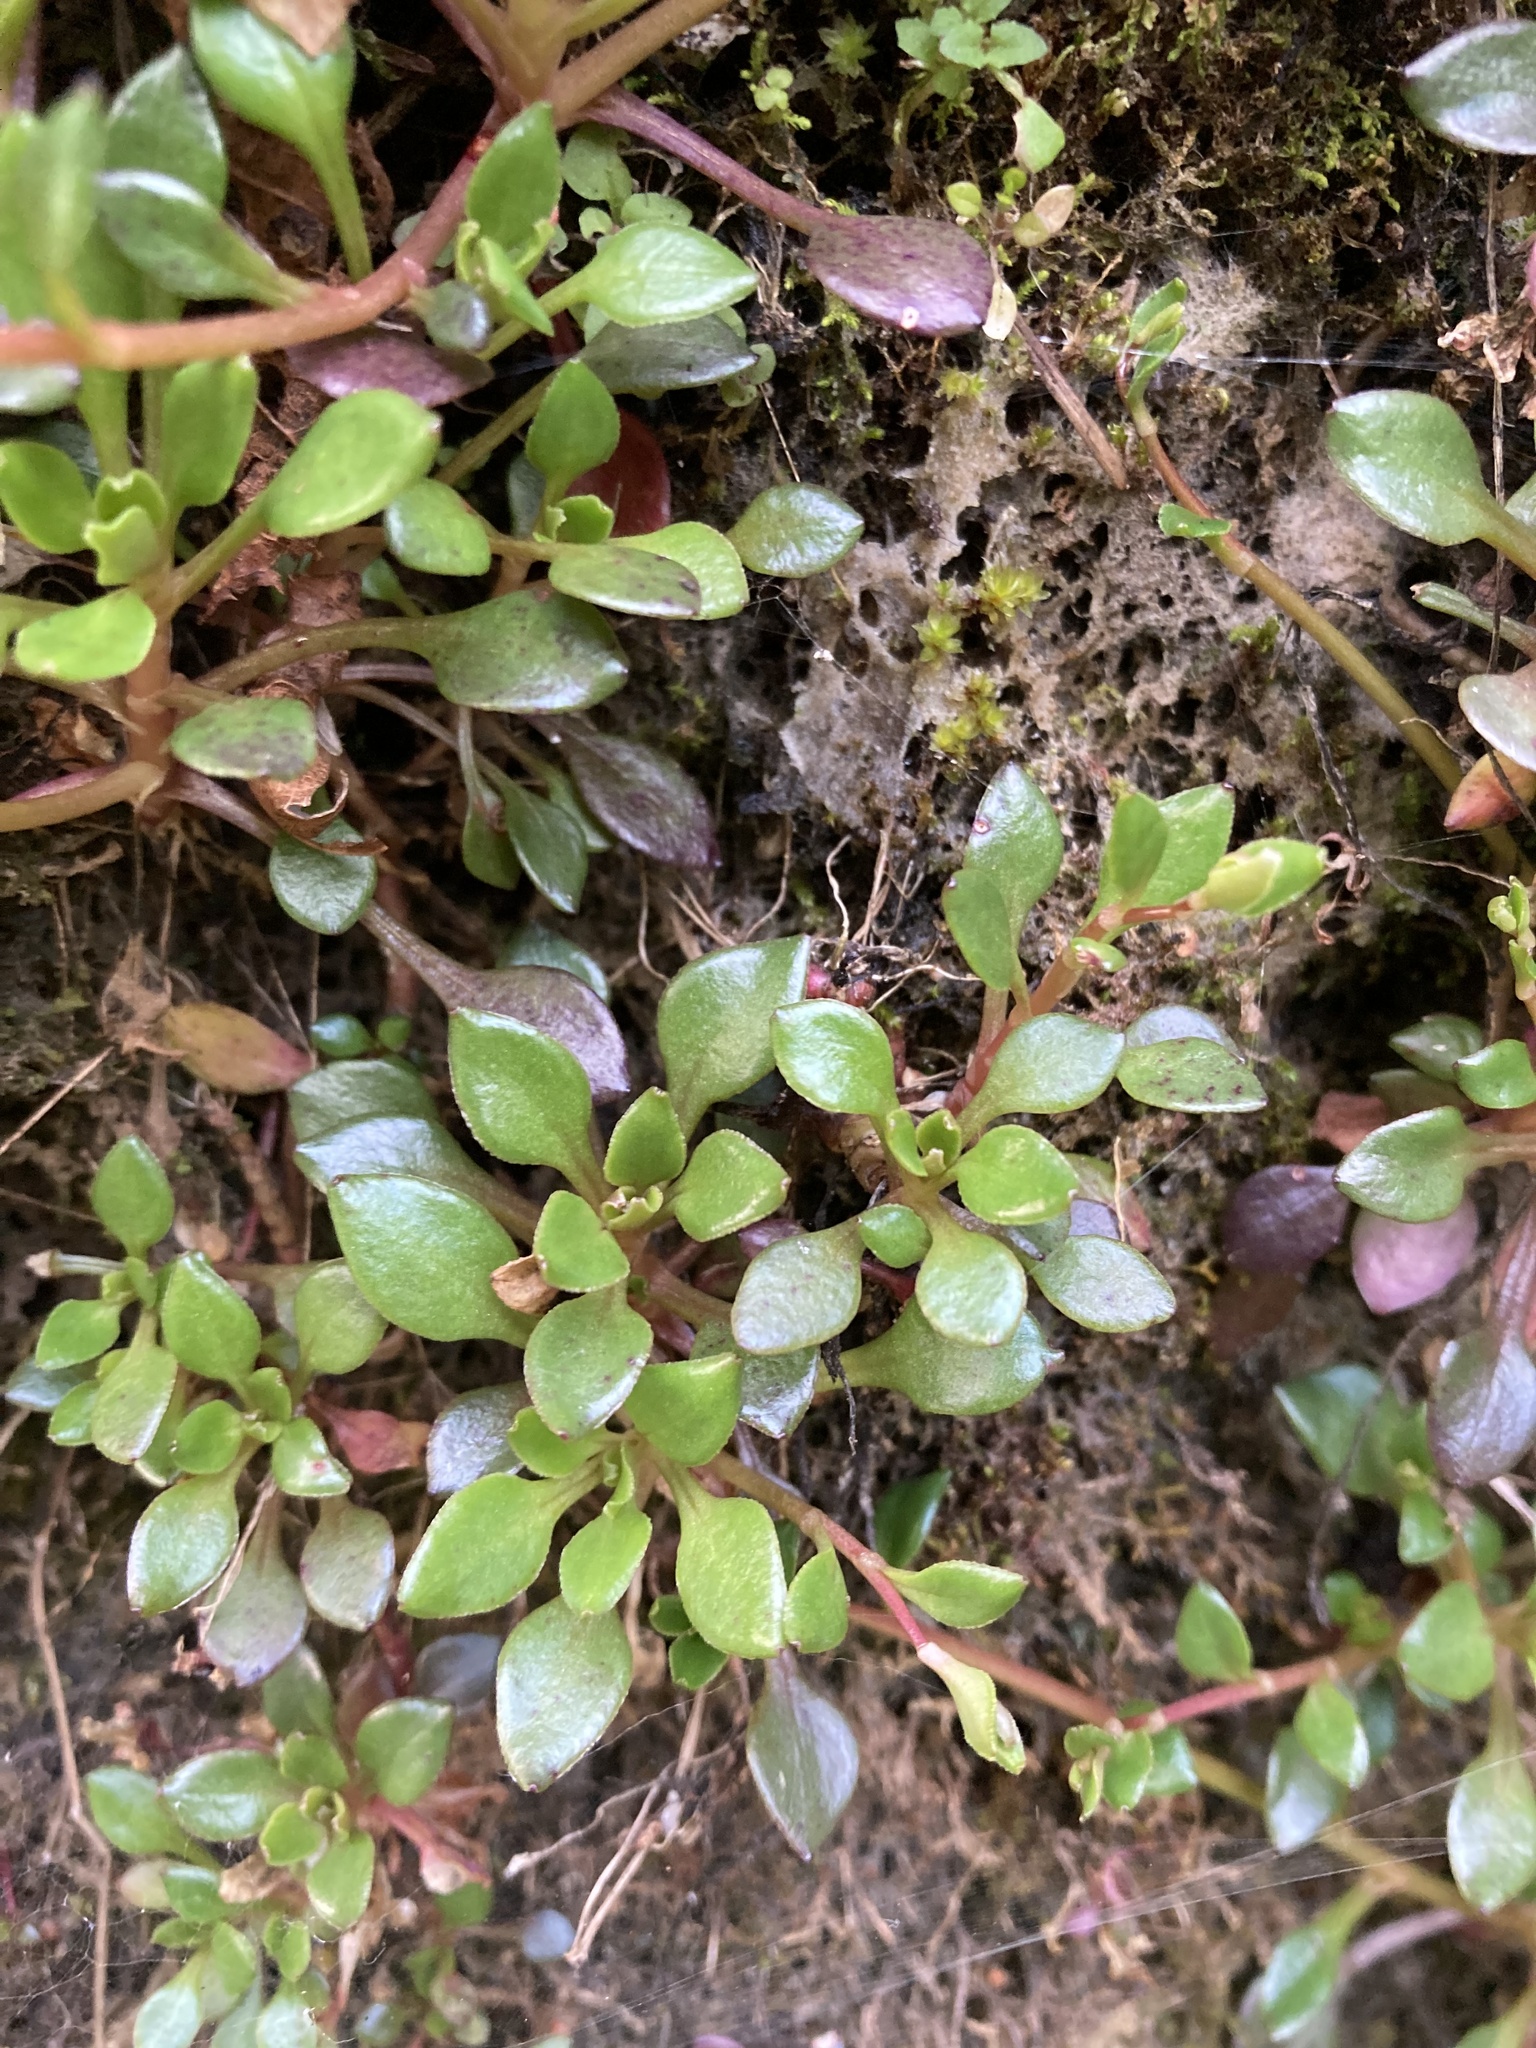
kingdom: Plantae
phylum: Tracheophyta
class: Magnoliopsida
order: Caryophyllales
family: Montiaceae
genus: Montia
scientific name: Montia parvifolia
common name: Small-leaved blinks
